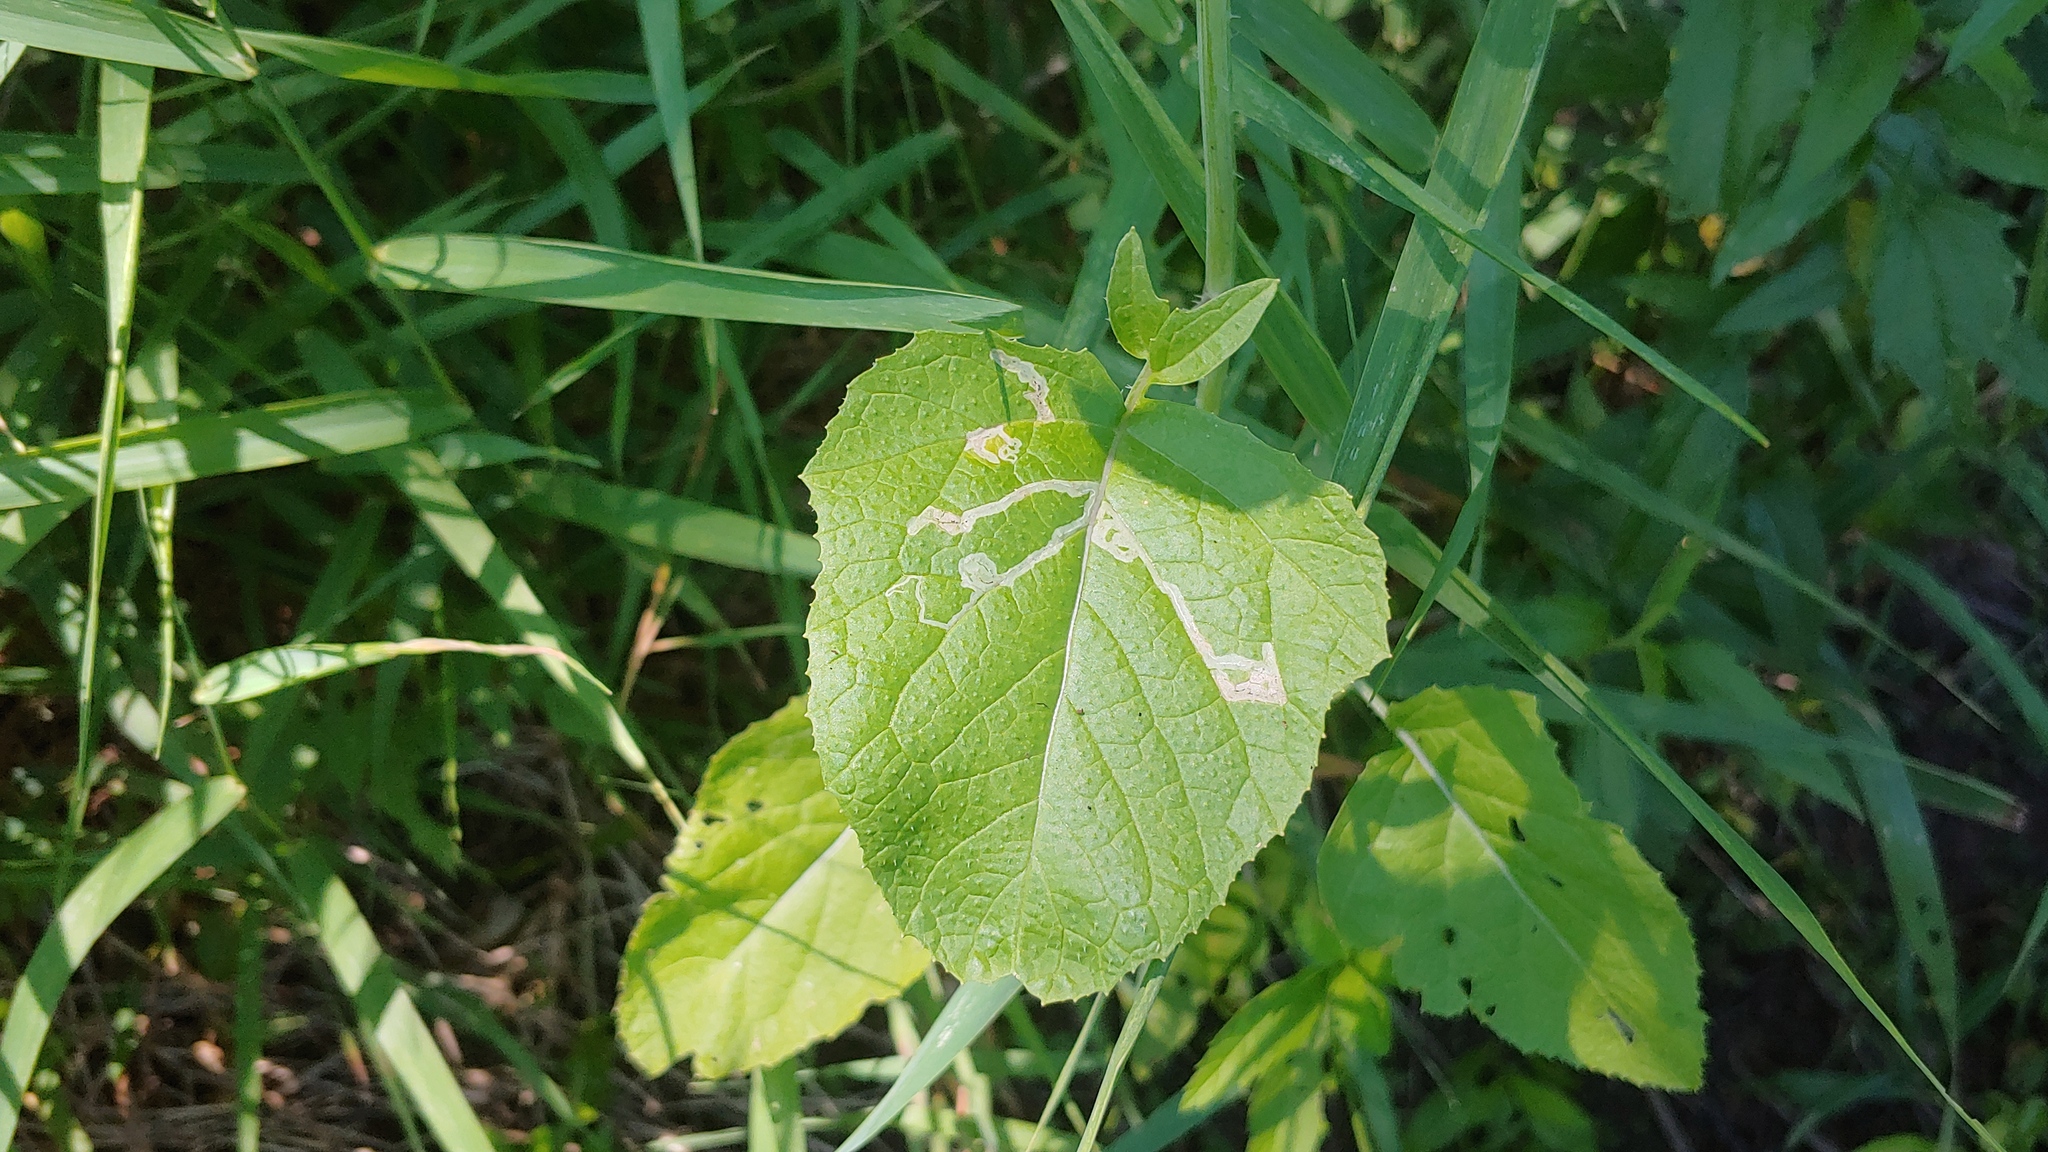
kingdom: Animalia
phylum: Arthropoda
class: Insecta
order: Diptera
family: Agromyzidae
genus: Liriomyza
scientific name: Liriomyza brassicae
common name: Serpentine leaf miner
